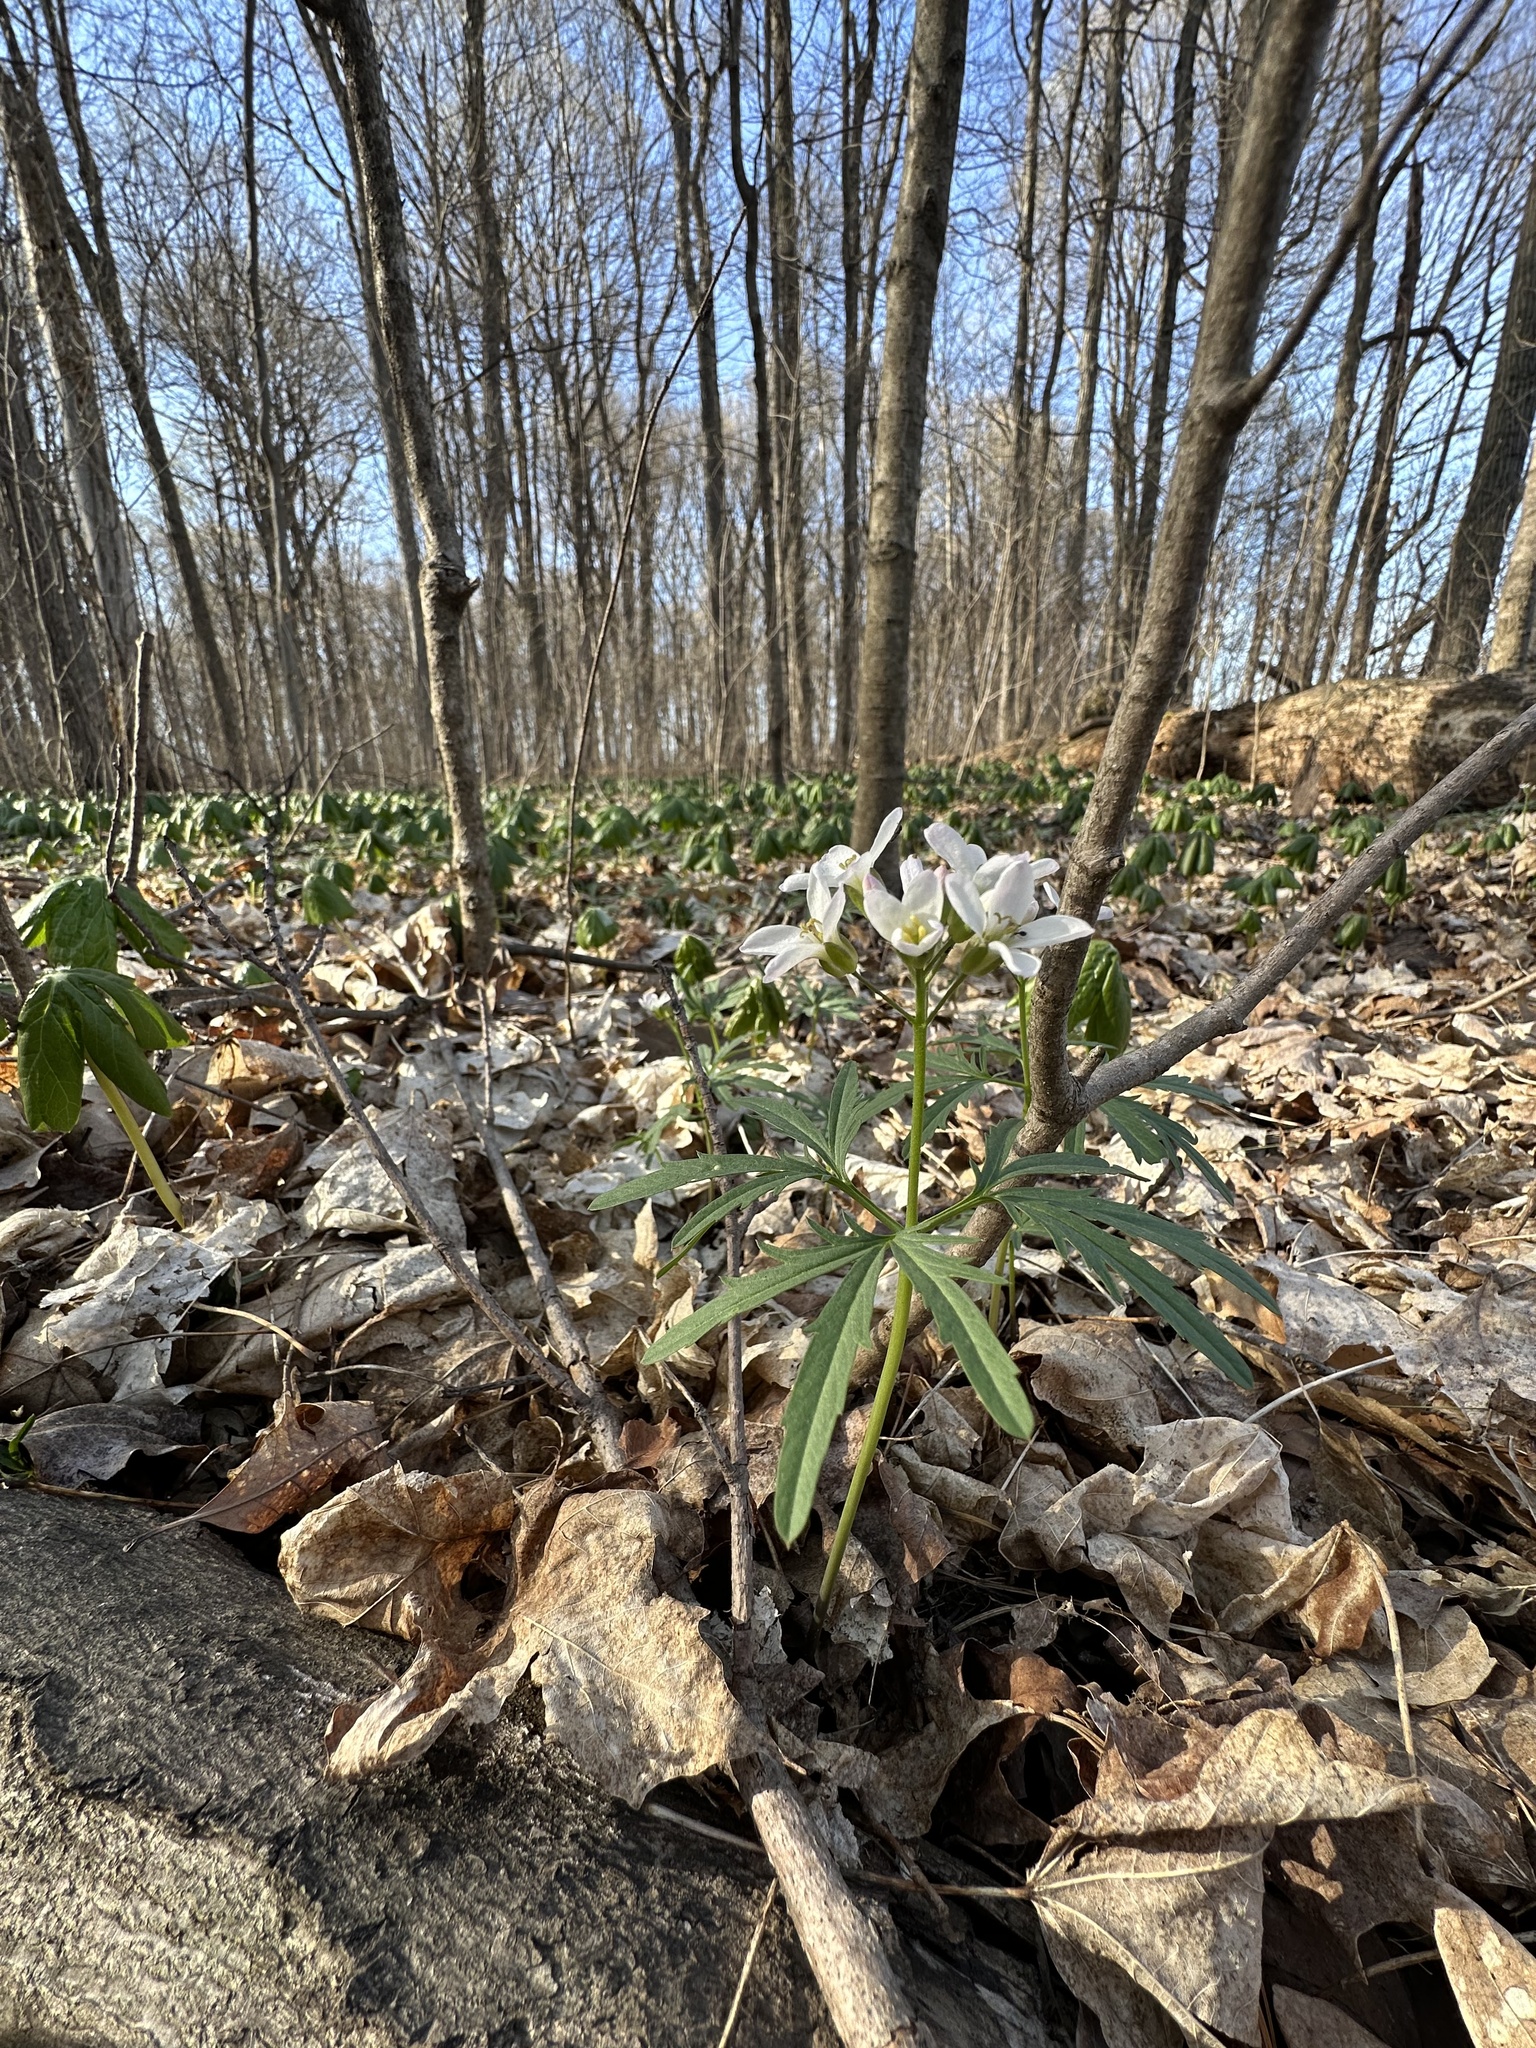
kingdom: Plantae
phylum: Tracheophyta
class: Magnoliopsida
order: Brassicales
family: Brassicaceae
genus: Cardamine
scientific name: Cardamine concatenata
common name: Cut-leaf toothcup
